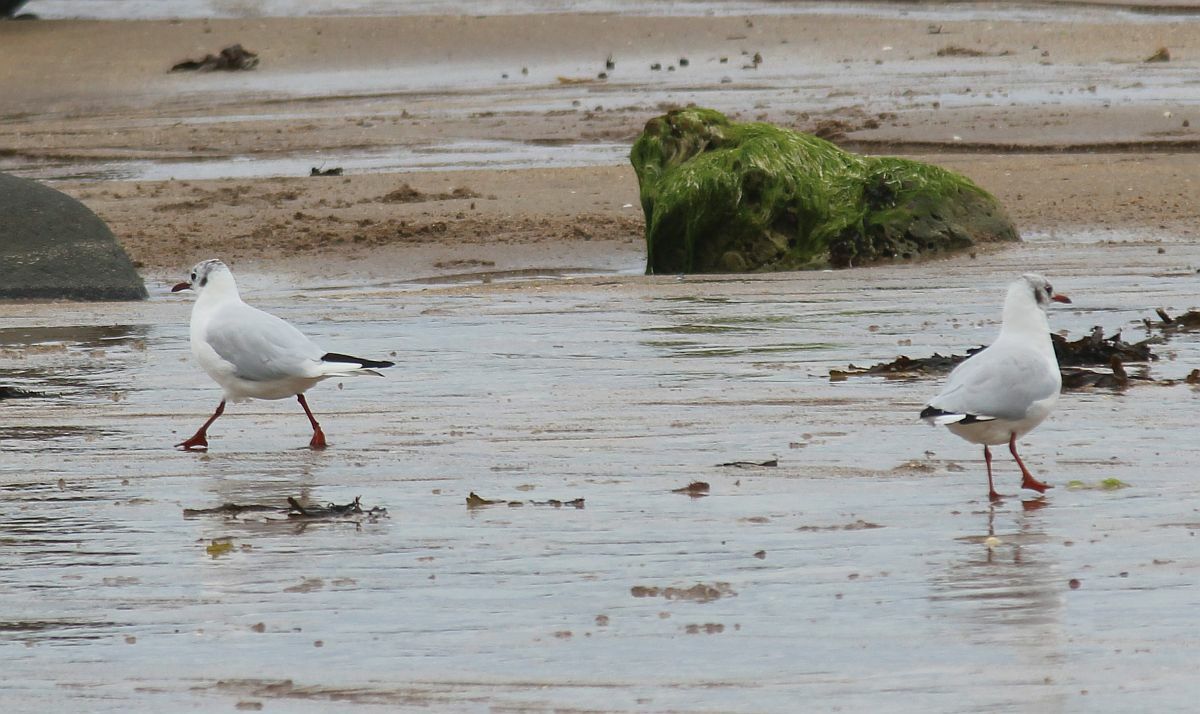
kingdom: Animalia
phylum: Chordata
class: Aves
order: Charadriiformes
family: Laridae
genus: Chroicocephalus
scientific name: Chroicocephalus ridibundus
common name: Black-headed gull
